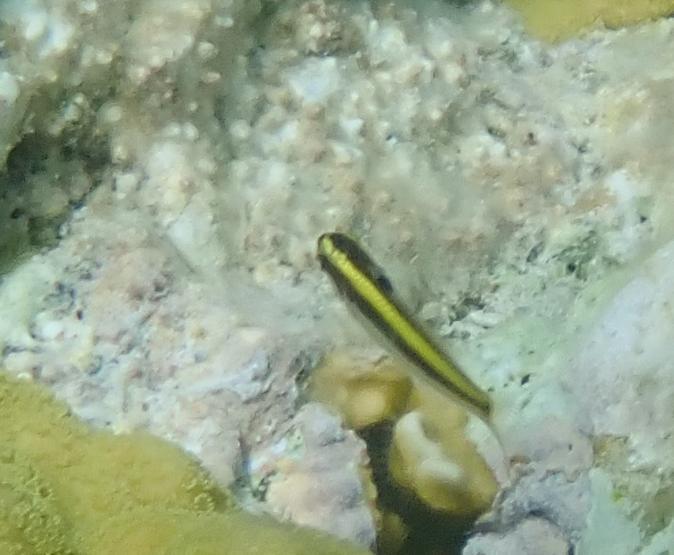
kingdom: Animalia
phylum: Chordata
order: Perciformes
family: Labridae
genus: Thalassoma
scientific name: Thalassoma bifasciatum
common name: Bluehead wrasse
